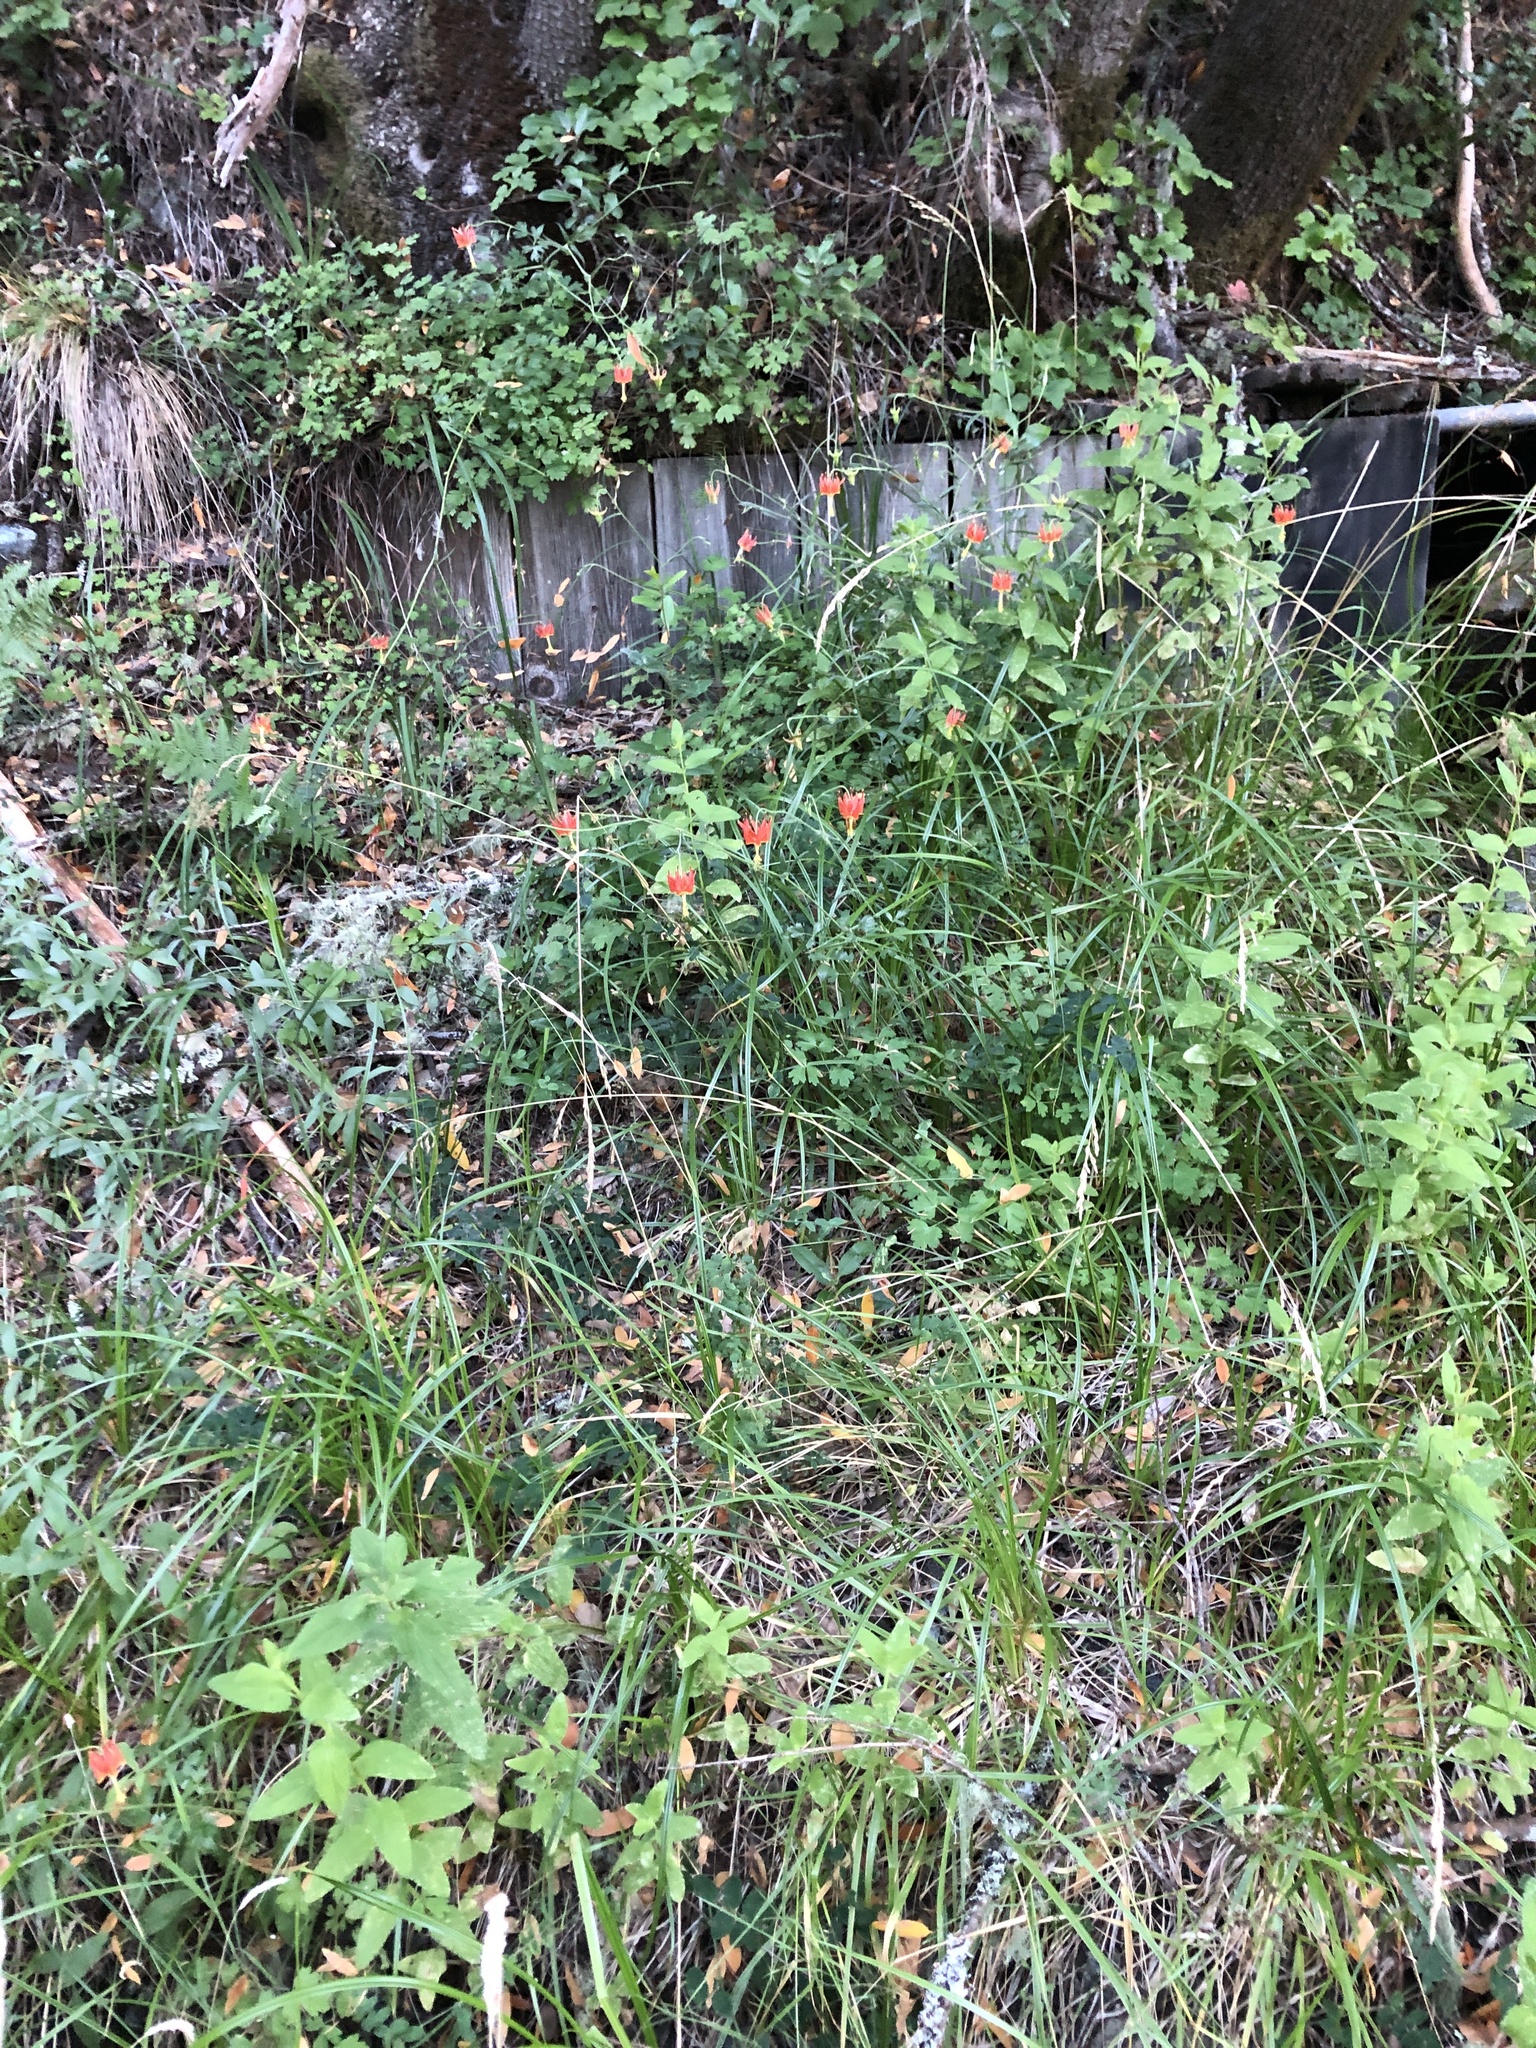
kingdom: Plantae
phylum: Tracheophyta
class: Magnoliopsida
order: Ranunculales
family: Ranunculaceae
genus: Aquilegia
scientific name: Aquilegia eximia
